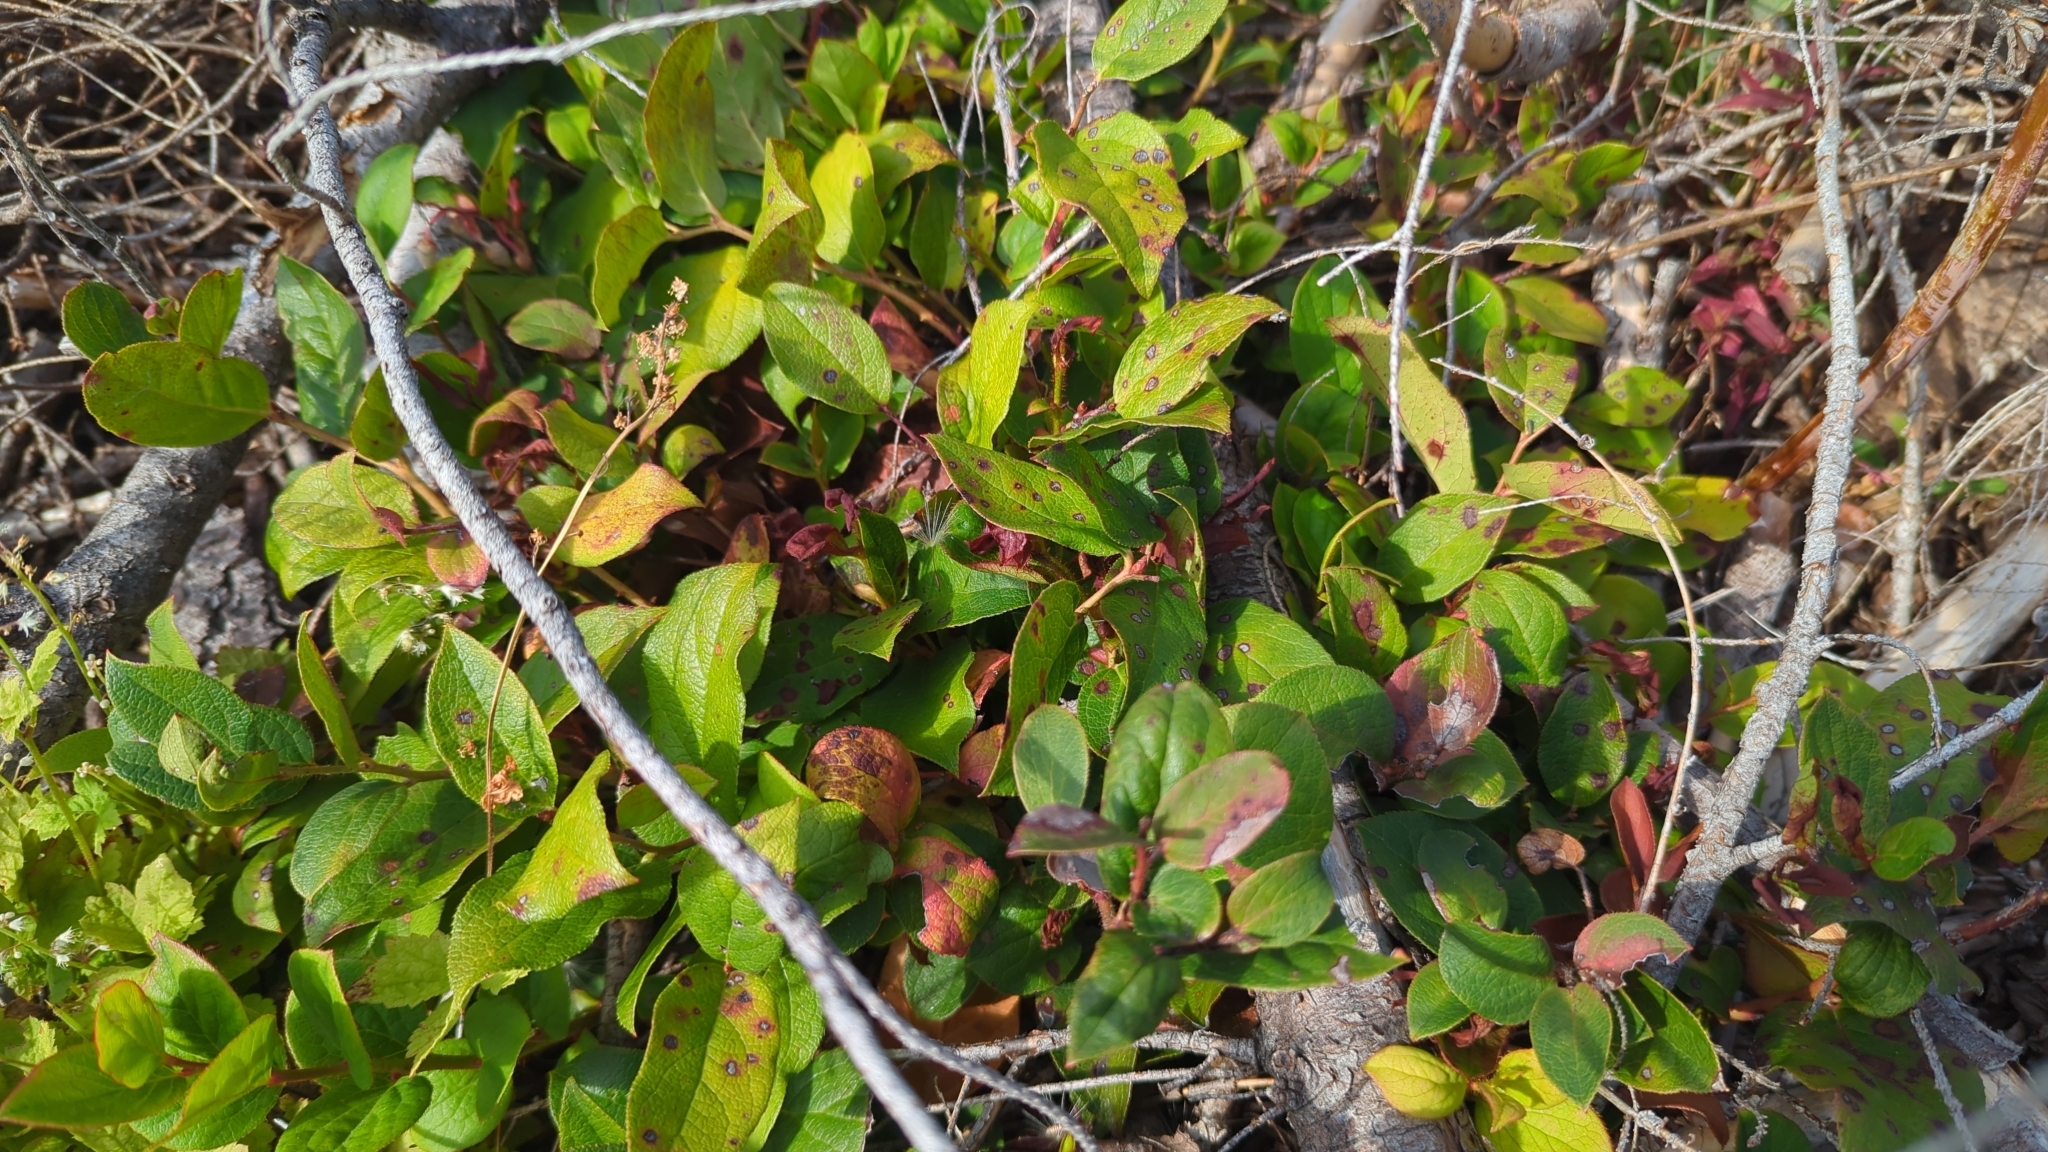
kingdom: Plantae
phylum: Tracheophyta
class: Magnoliopsida
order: Ericales
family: Ericaceae
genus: Gaultheria
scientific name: Gaultheria shallon
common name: Shallon
